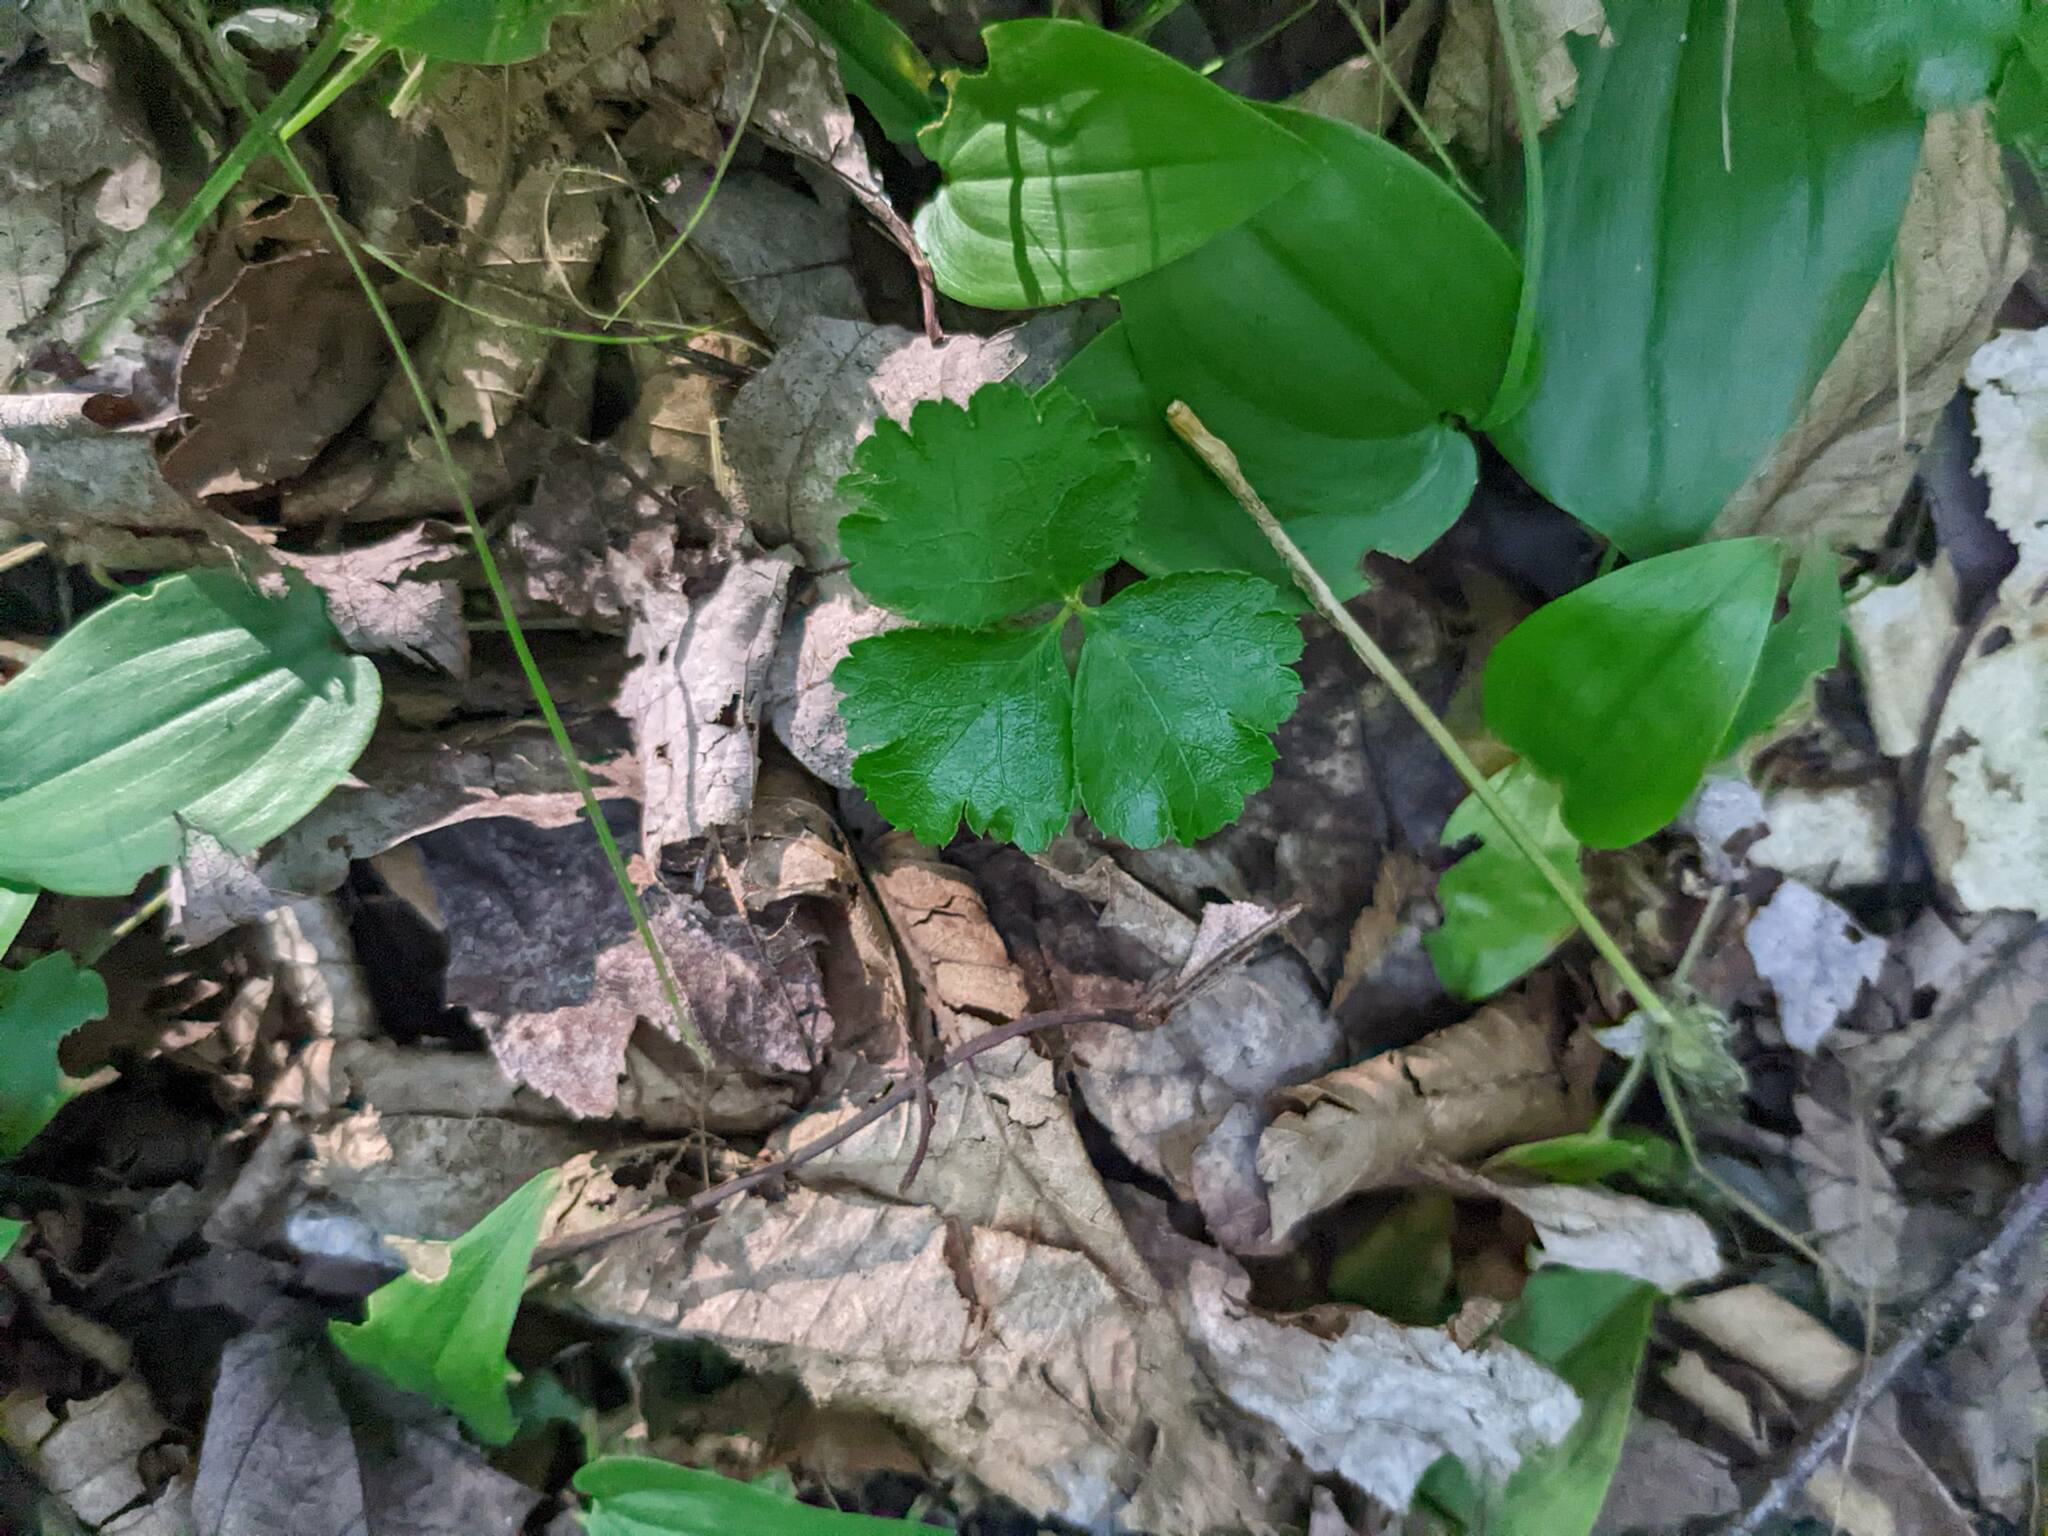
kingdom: Plantae
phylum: Tracheophyta
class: Magnoliopsida
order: Ranunculales
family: Ranunculaceae
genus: Coptis
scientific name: Coptis trifolia
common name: Canker-root
